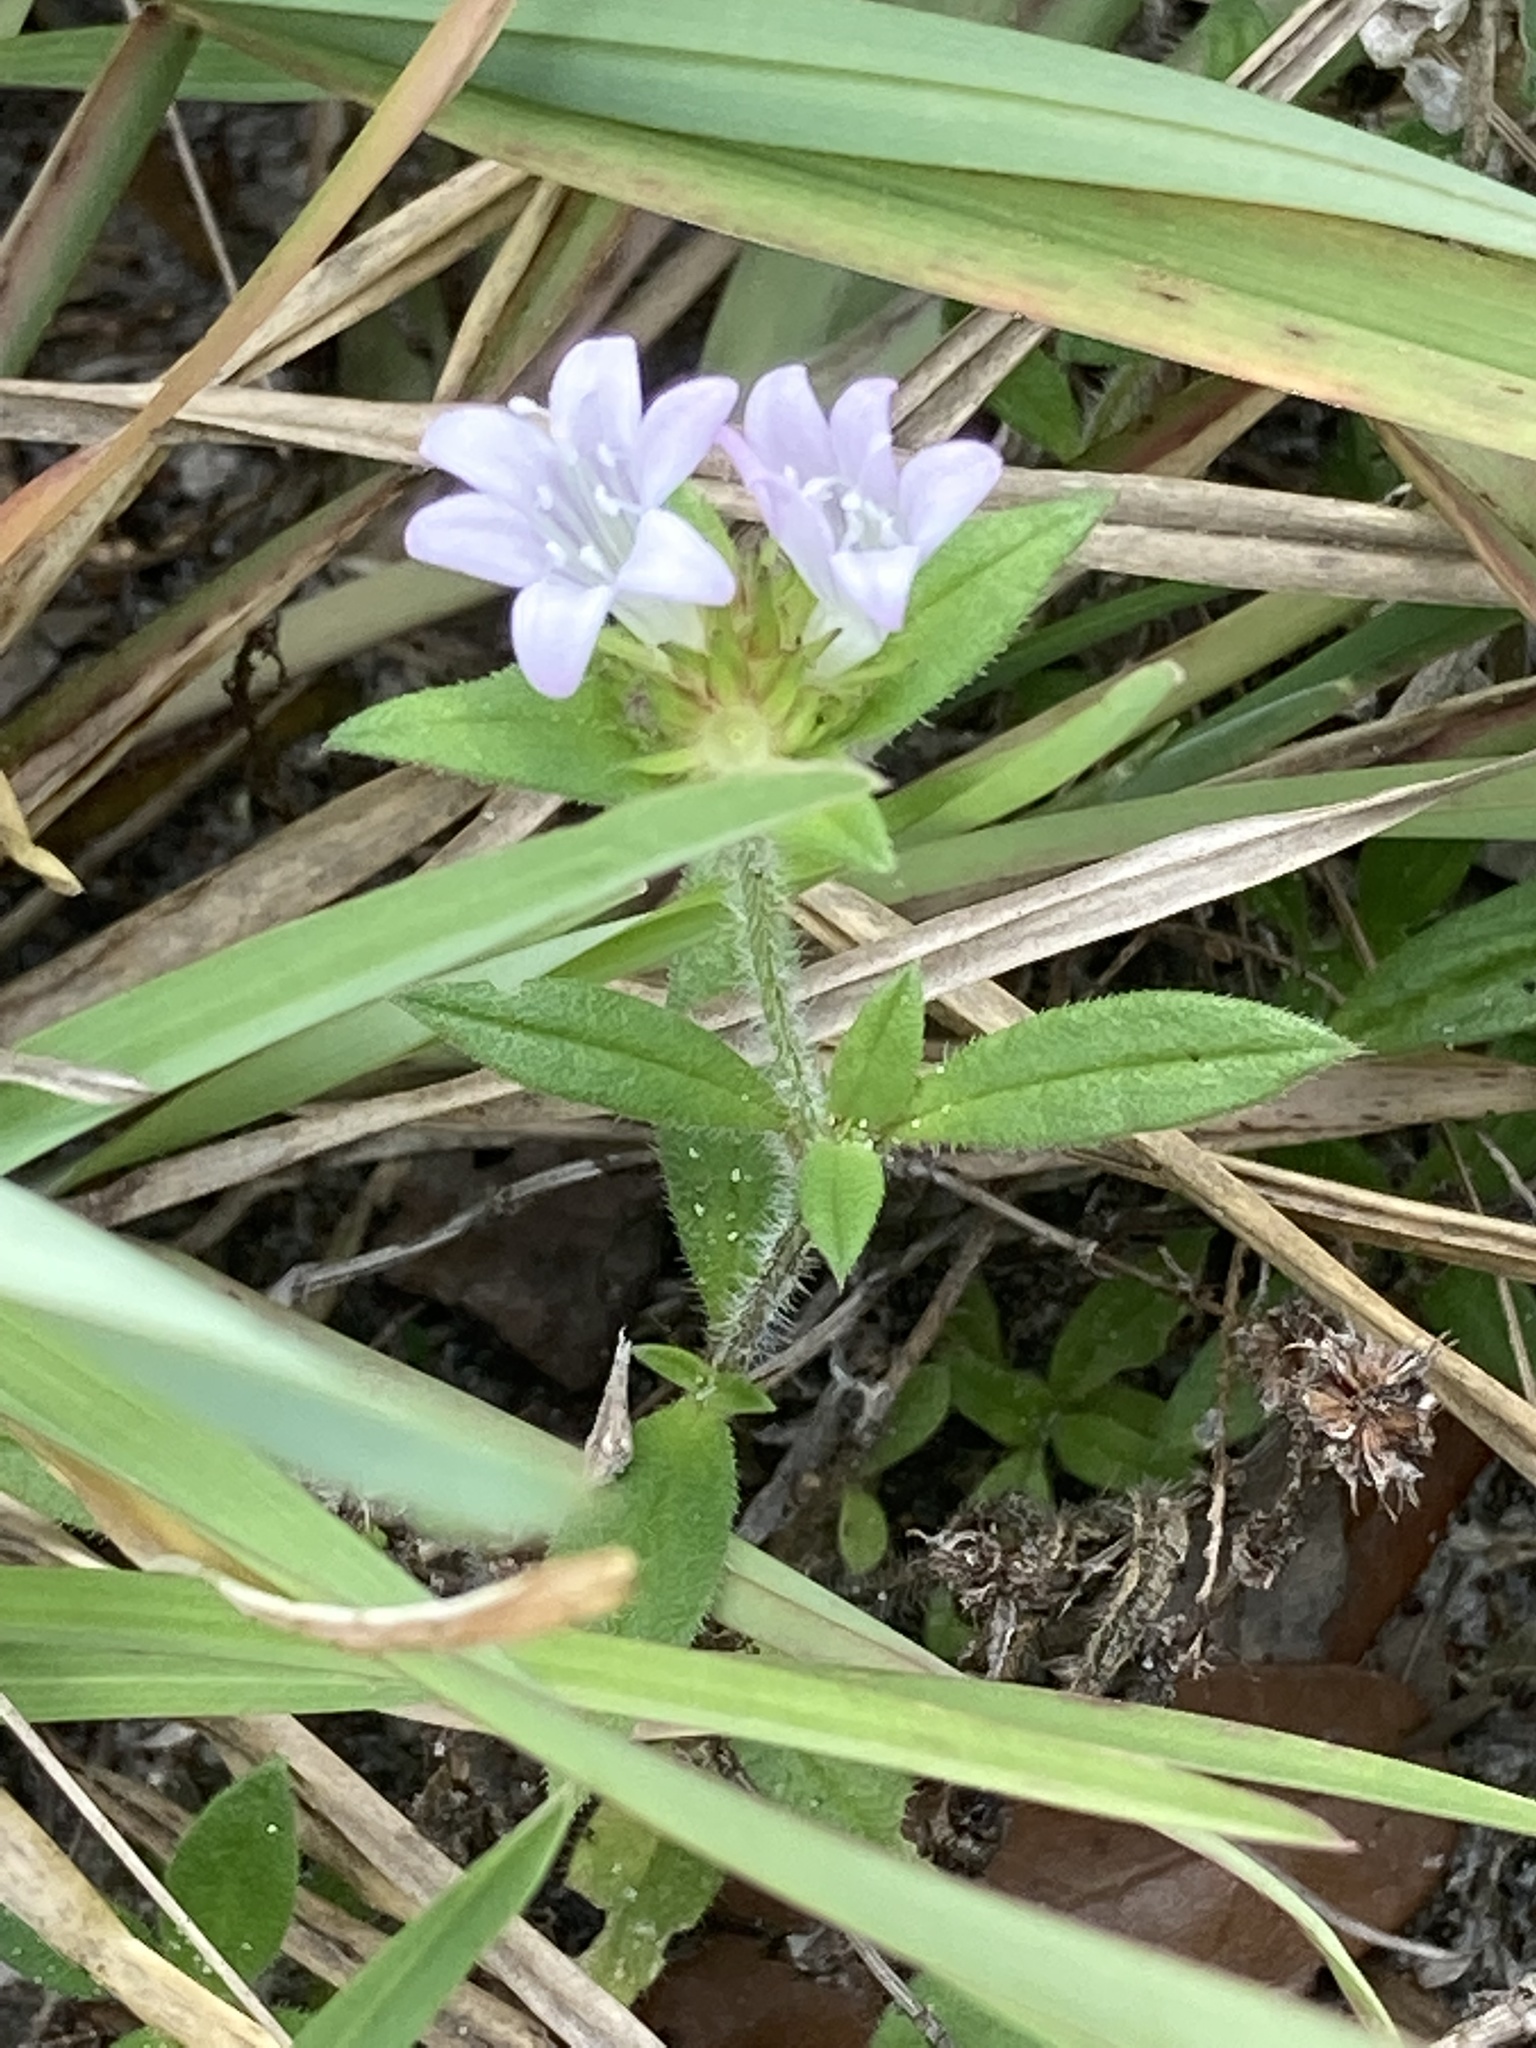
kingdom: Plantae
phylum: Tracheophyta
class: Magnoliopsida
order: Gentianales
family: Rubiaceae
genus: Richardia
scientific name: Richardia grandiflora
